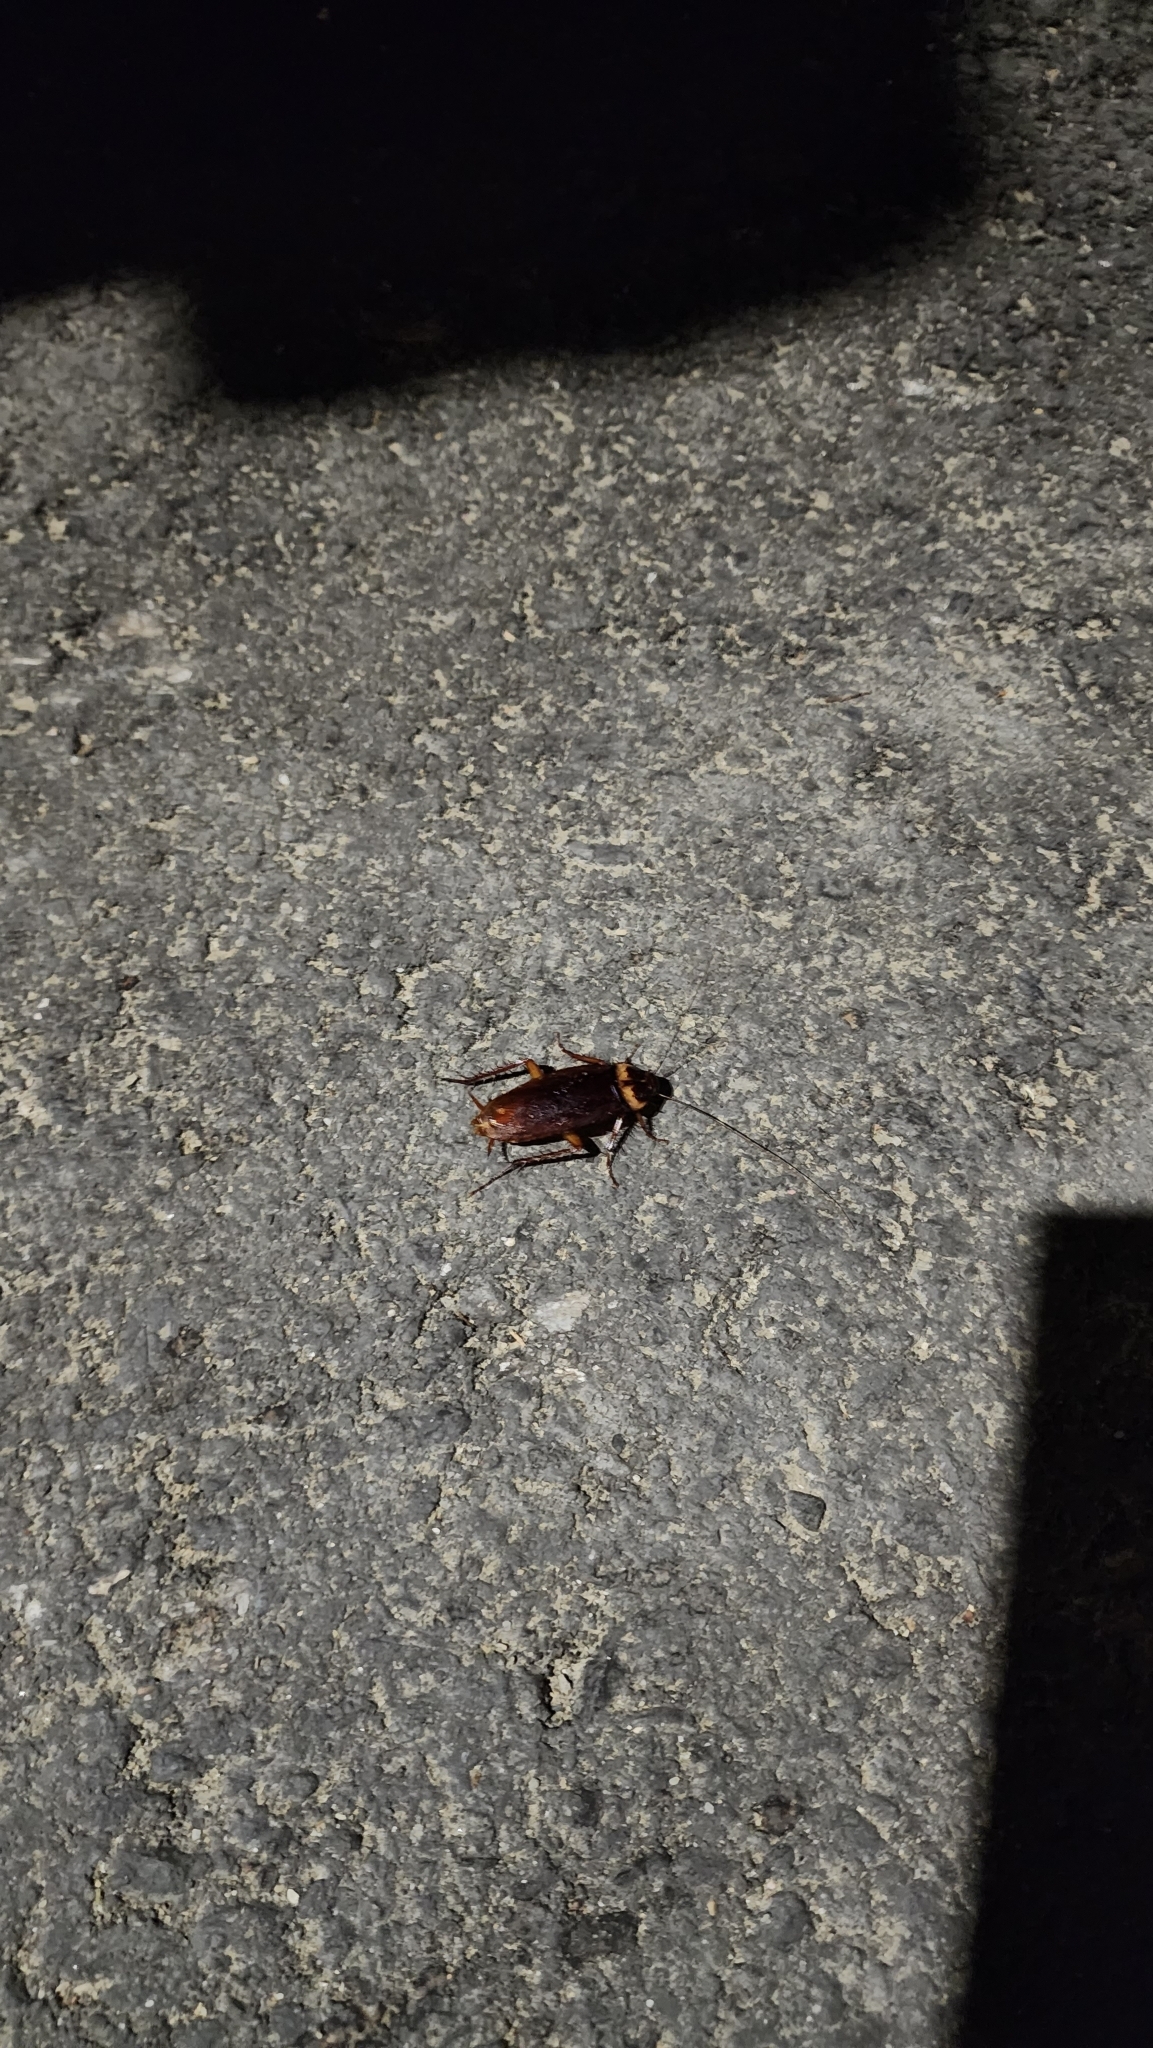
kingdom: Animalia
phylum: Arthropoda
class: Insecta
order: Blattodea
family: Blattidae
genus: Periplaneta
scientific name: Periplaneta americana
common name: American cockroach
